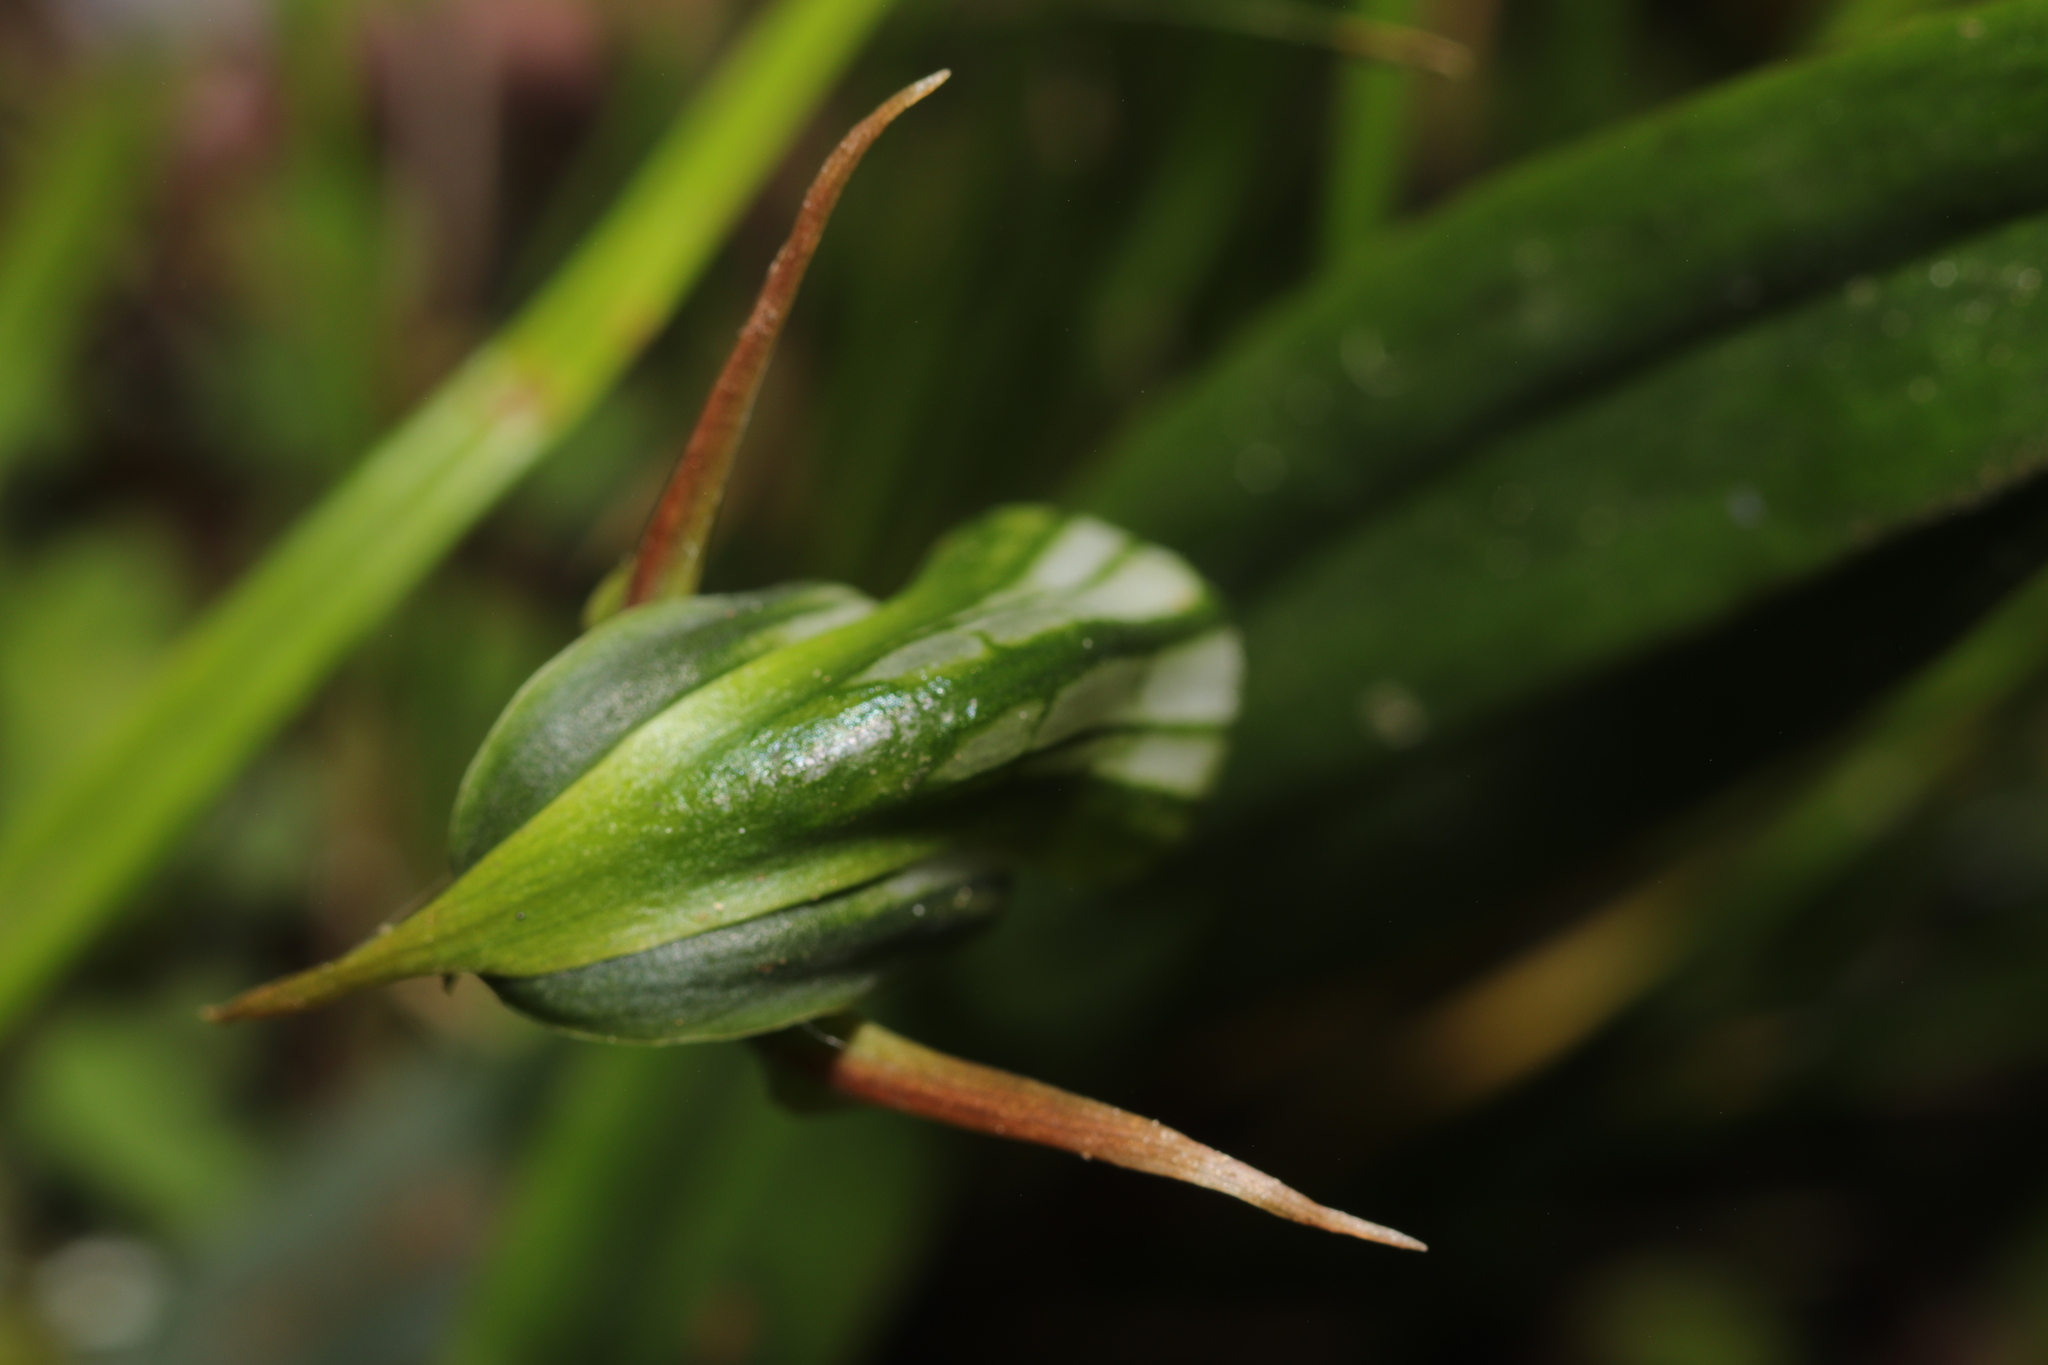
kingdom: Plantae
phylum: Tracheophyta
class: Liliopsida
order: Asparagales
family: Orchidaceae
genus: Pterostylis
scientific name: Pterostylis montana
